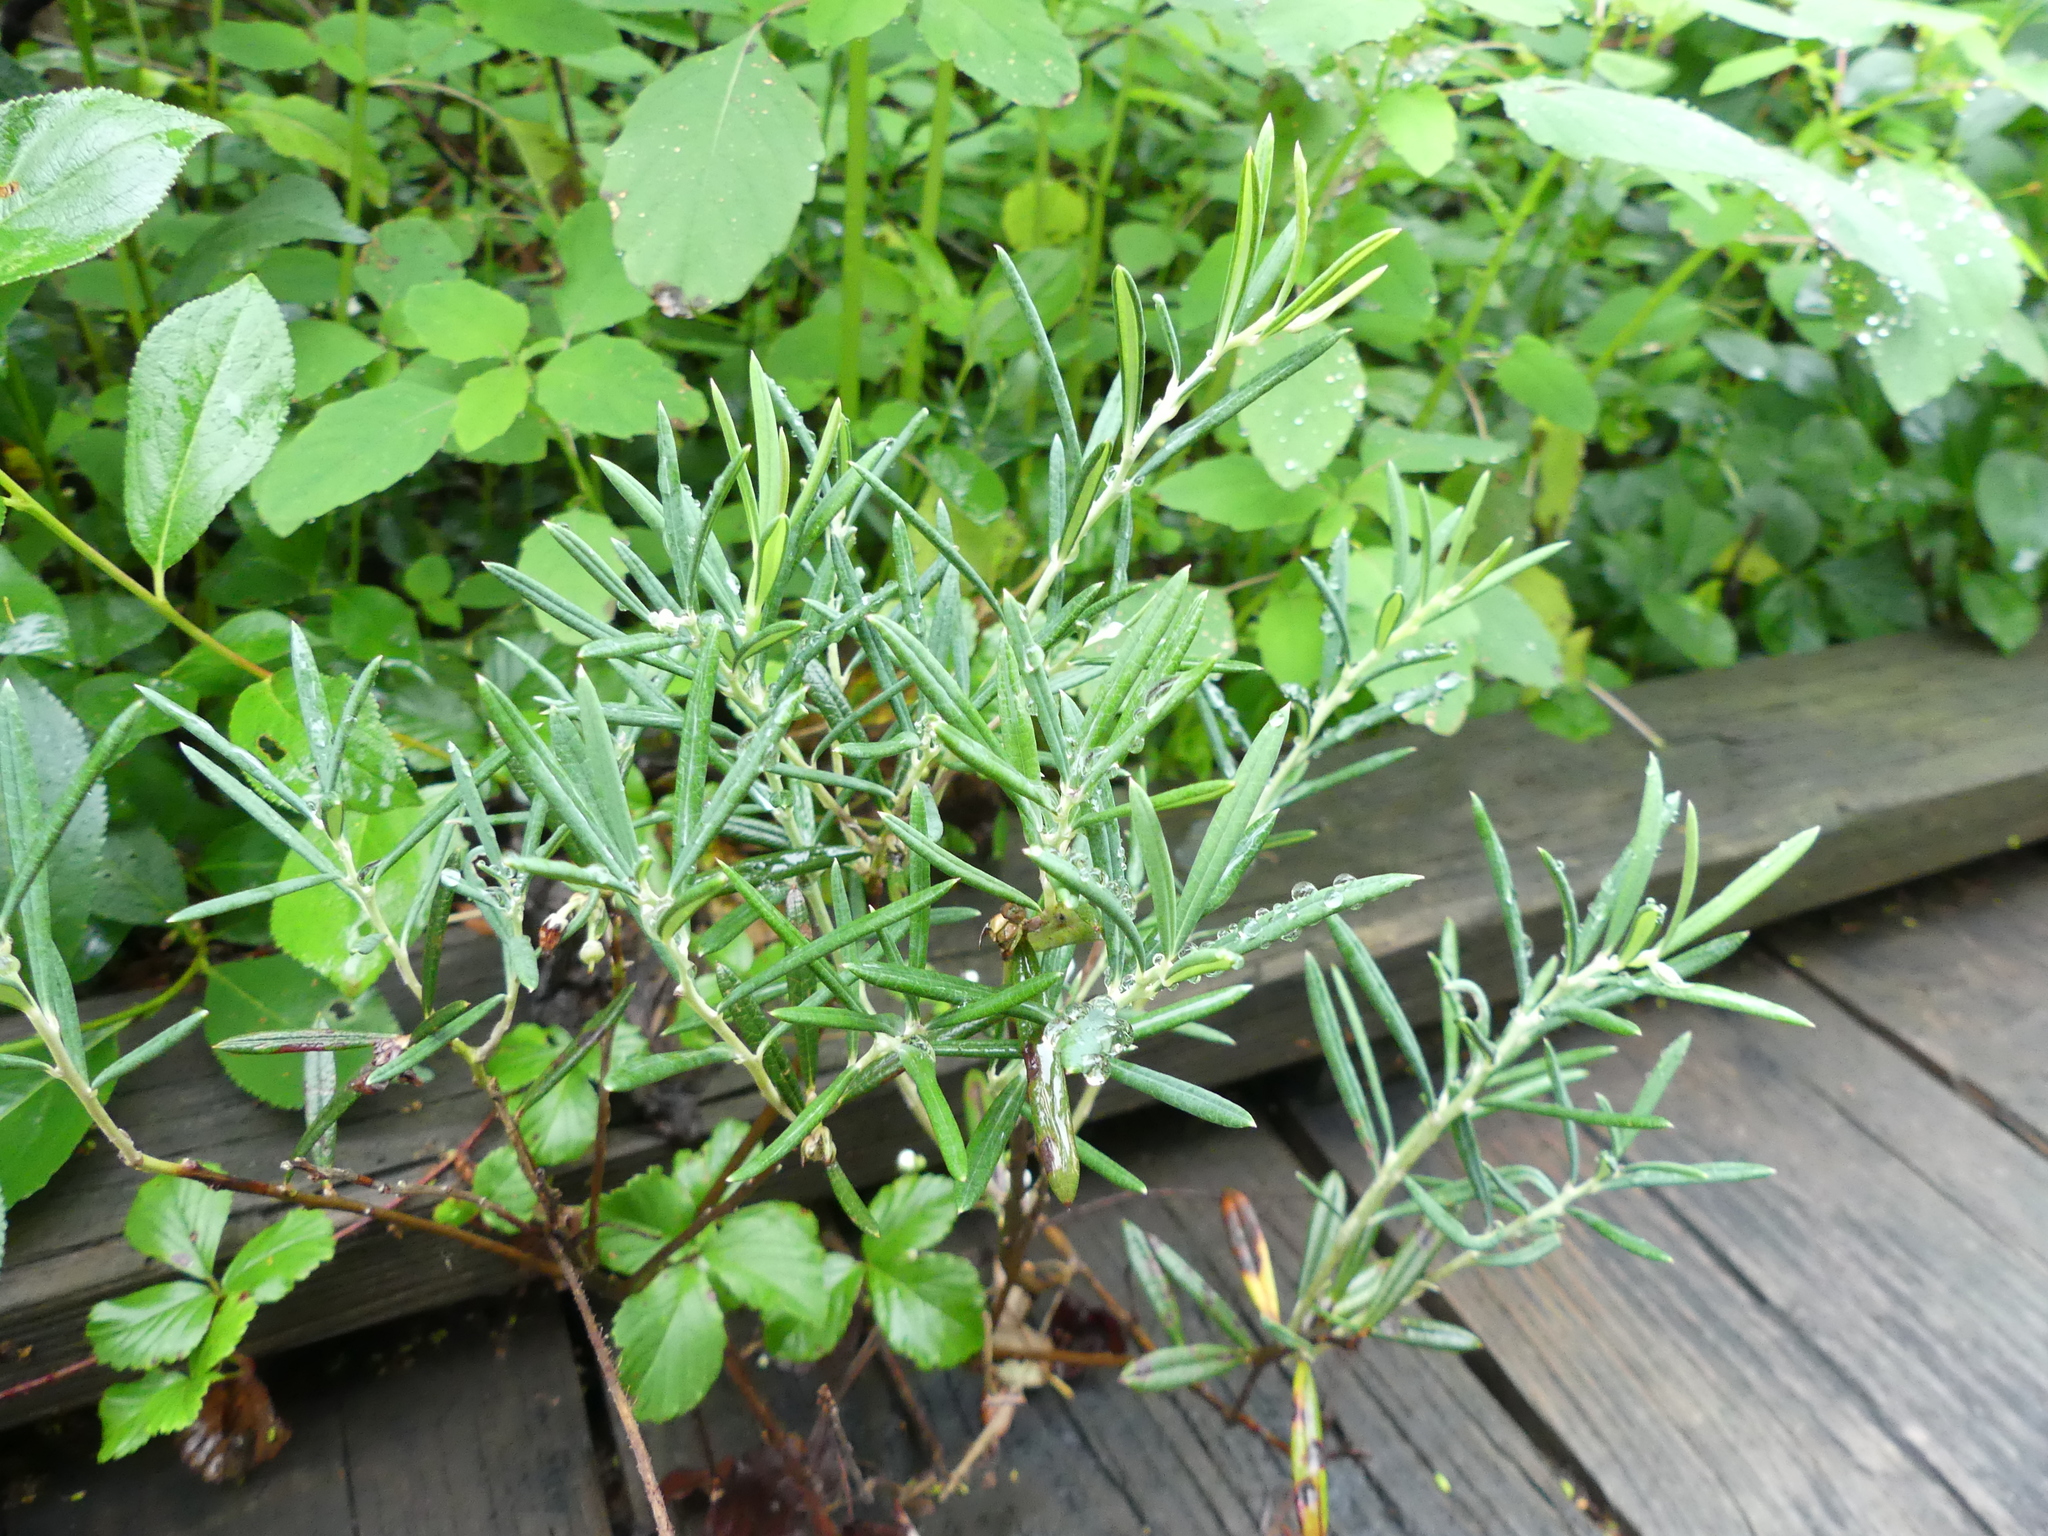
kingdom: Plantae
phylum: Tracheophyta
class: Magnoliopsida
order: Ericales
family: Ericaceae
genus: Andromeda
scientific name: Andromeda polifolia
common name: Bog-rosemary
